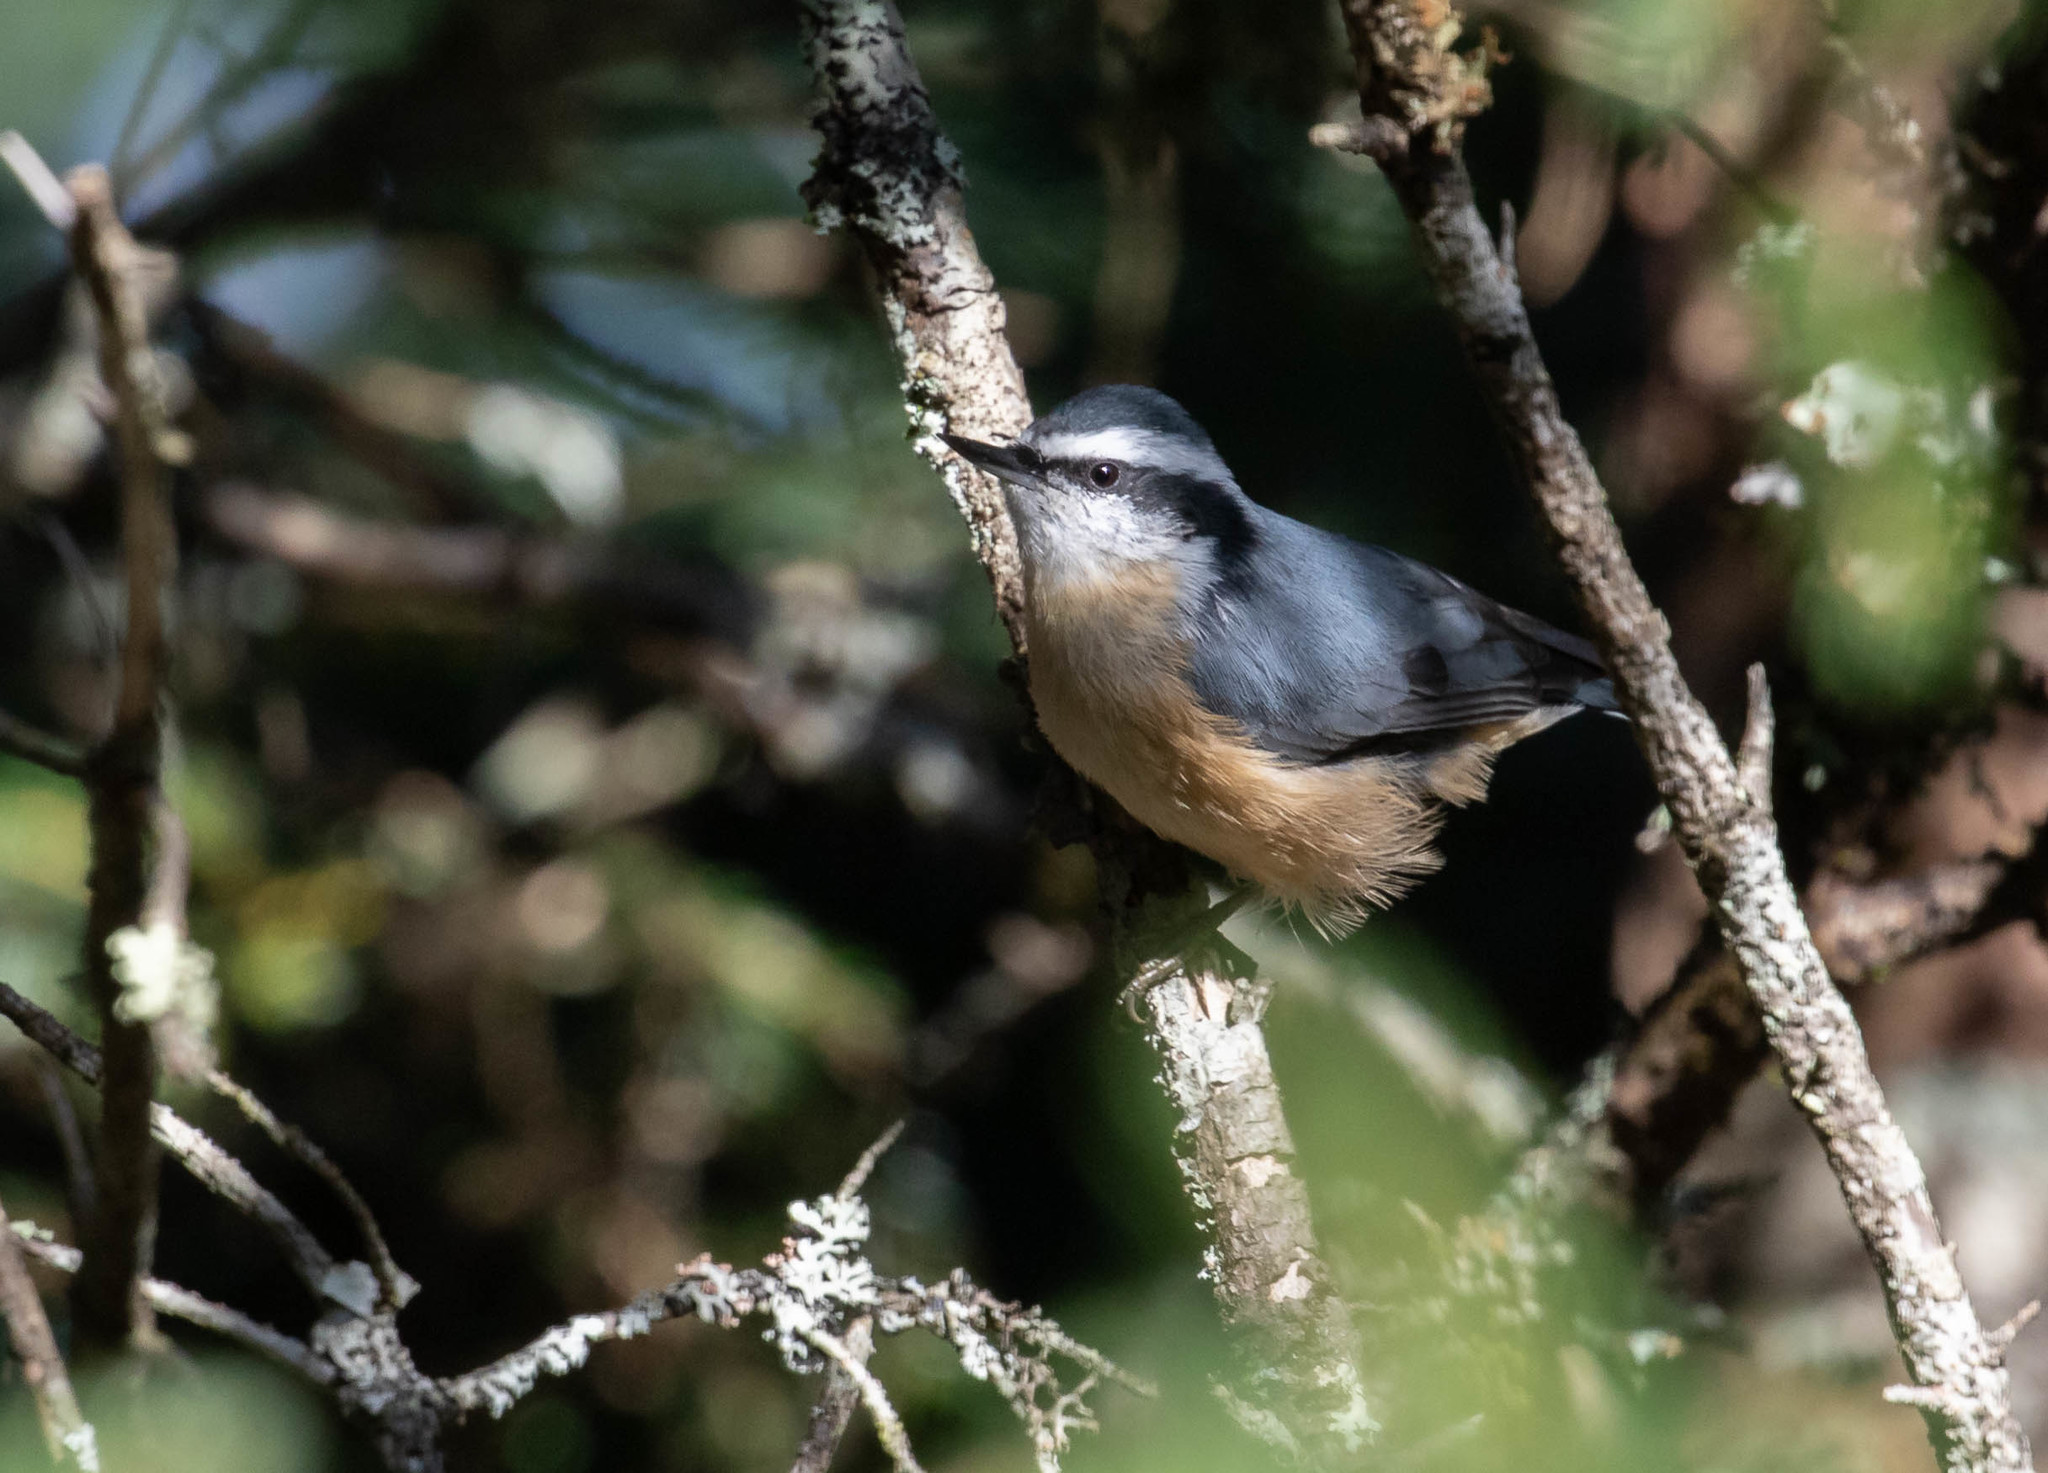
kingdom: Animalia
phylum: Chordata
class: Aves
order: Passeriformes
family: Sittidae
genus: Sitta
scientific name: Sitta canadensis
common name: Red-breasted nuthatch
